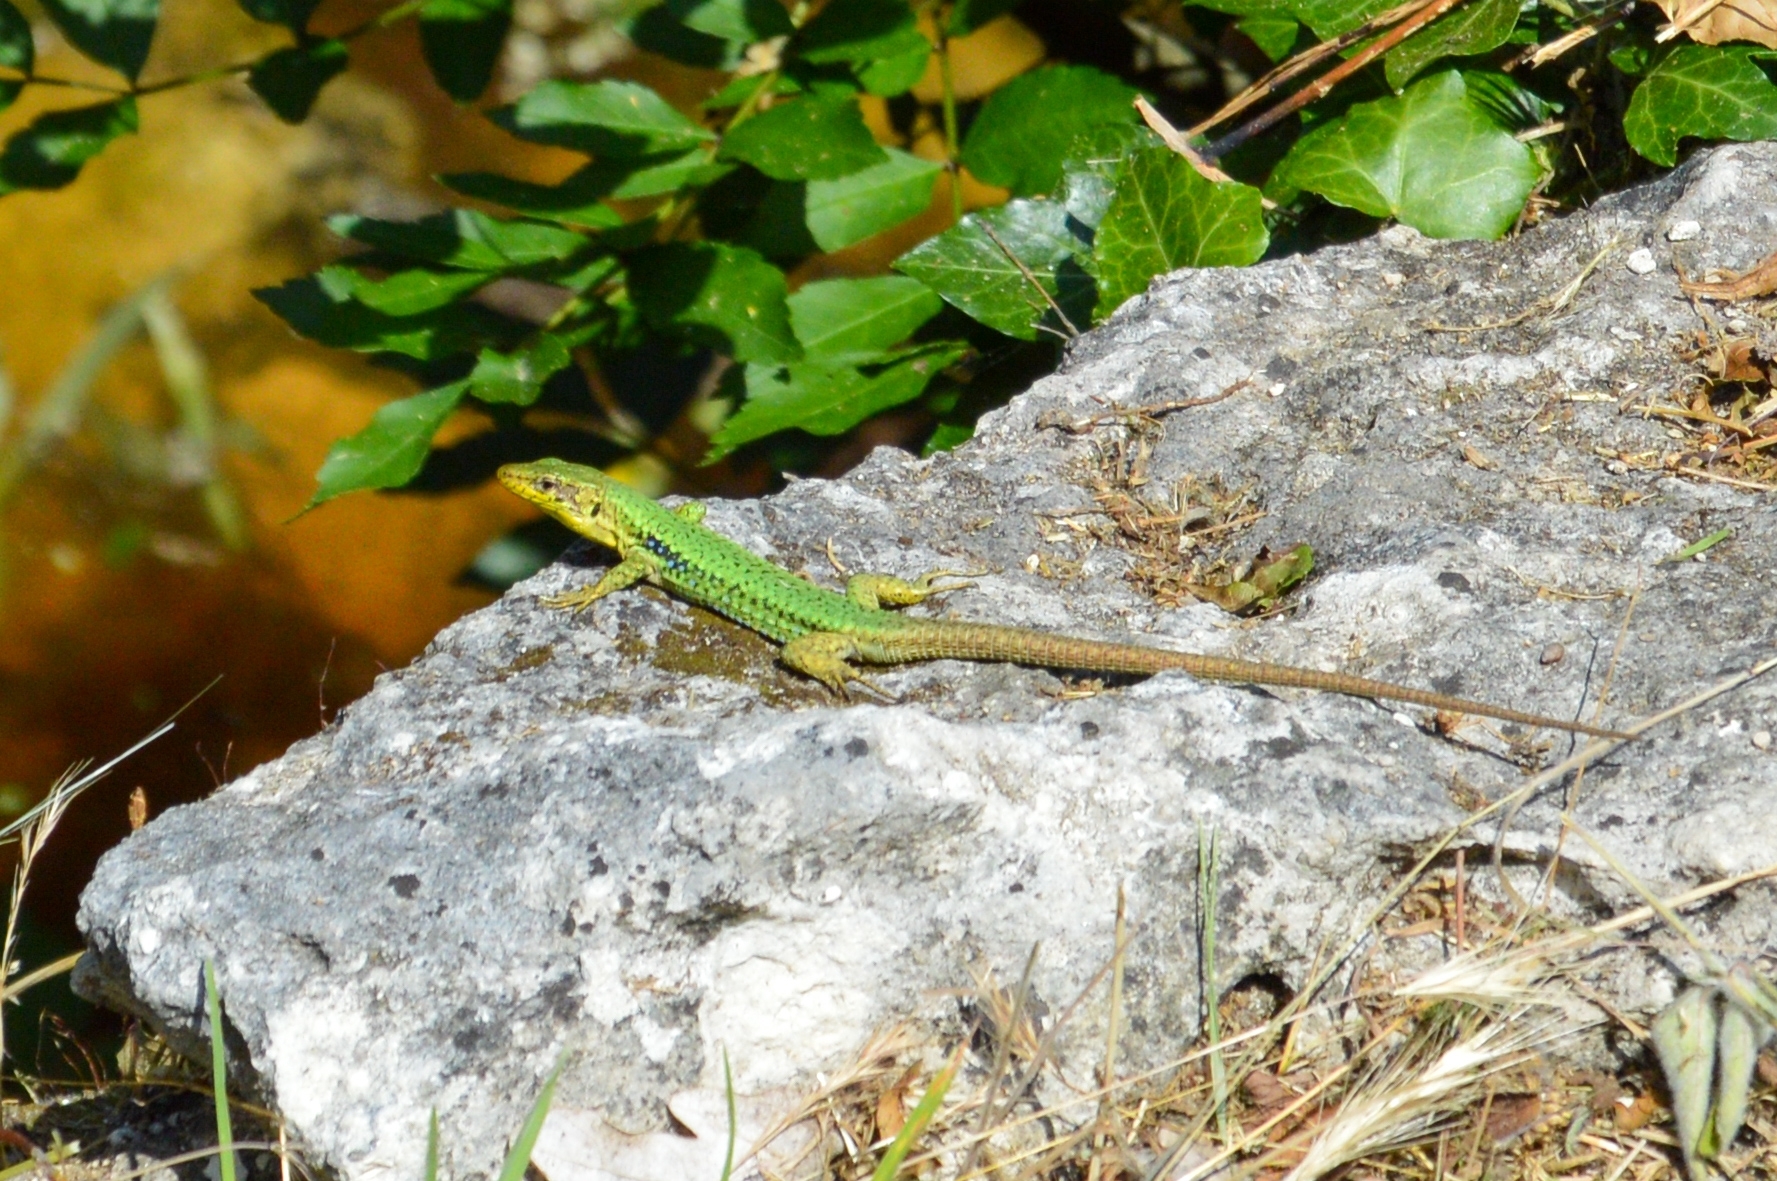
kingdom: Animalia
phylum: Chordata
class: Squamata
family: Lacertidae
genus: Darevskia
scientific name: Darevskia lindholmi
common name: Crimean rock lizard
